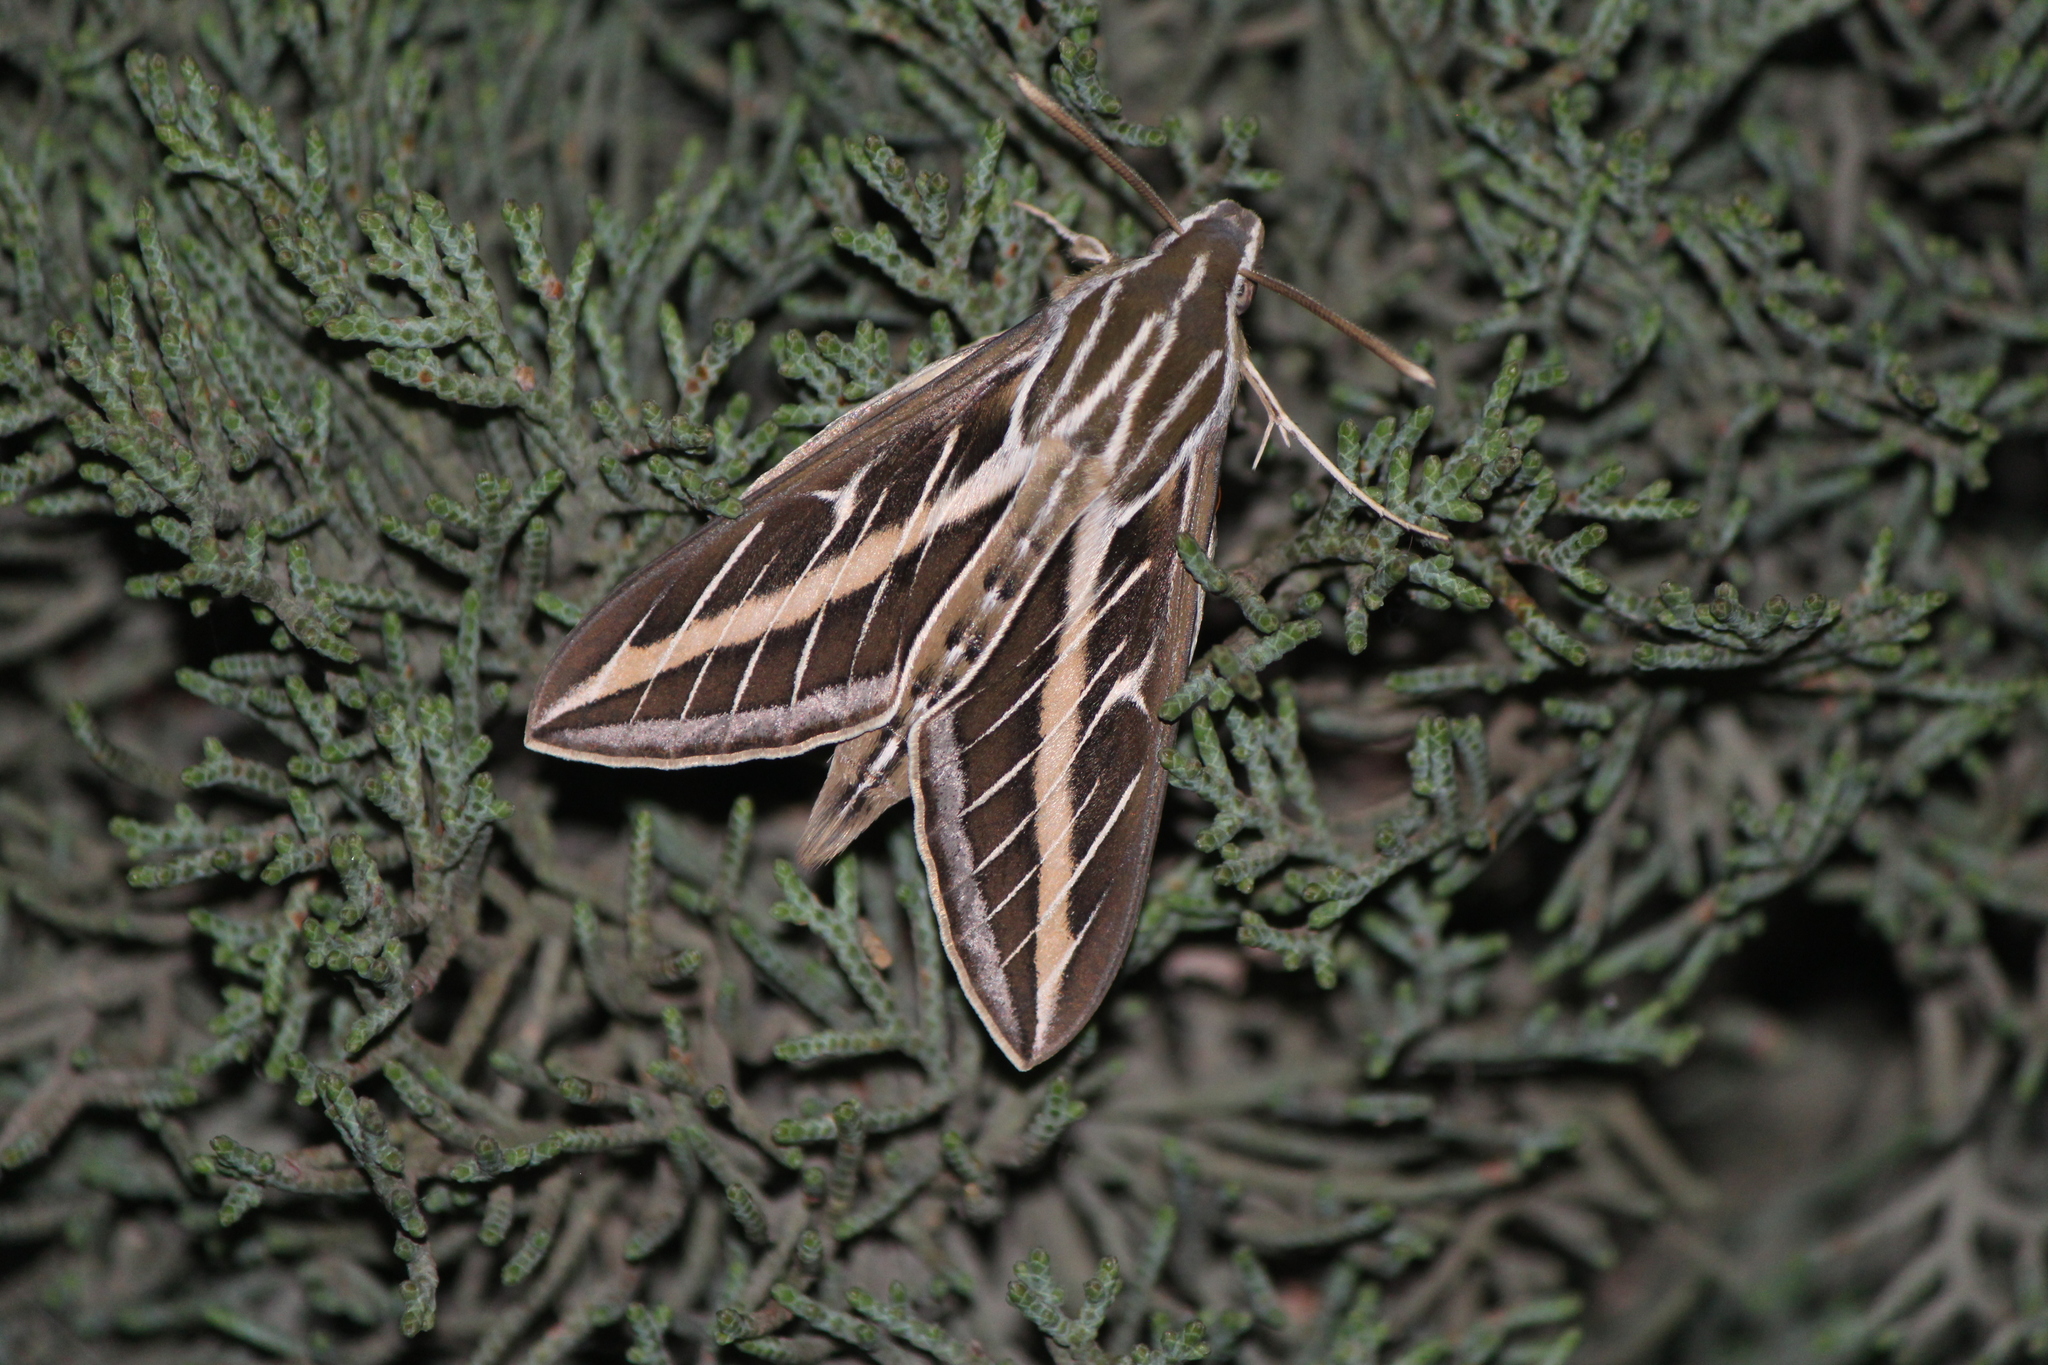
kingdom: Animalia
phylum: Arthropoda
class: Insecta
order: Lepidoptera
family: Sphingidae
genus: Hyles
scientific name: Hyles lineata
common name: White-lined sphinx
